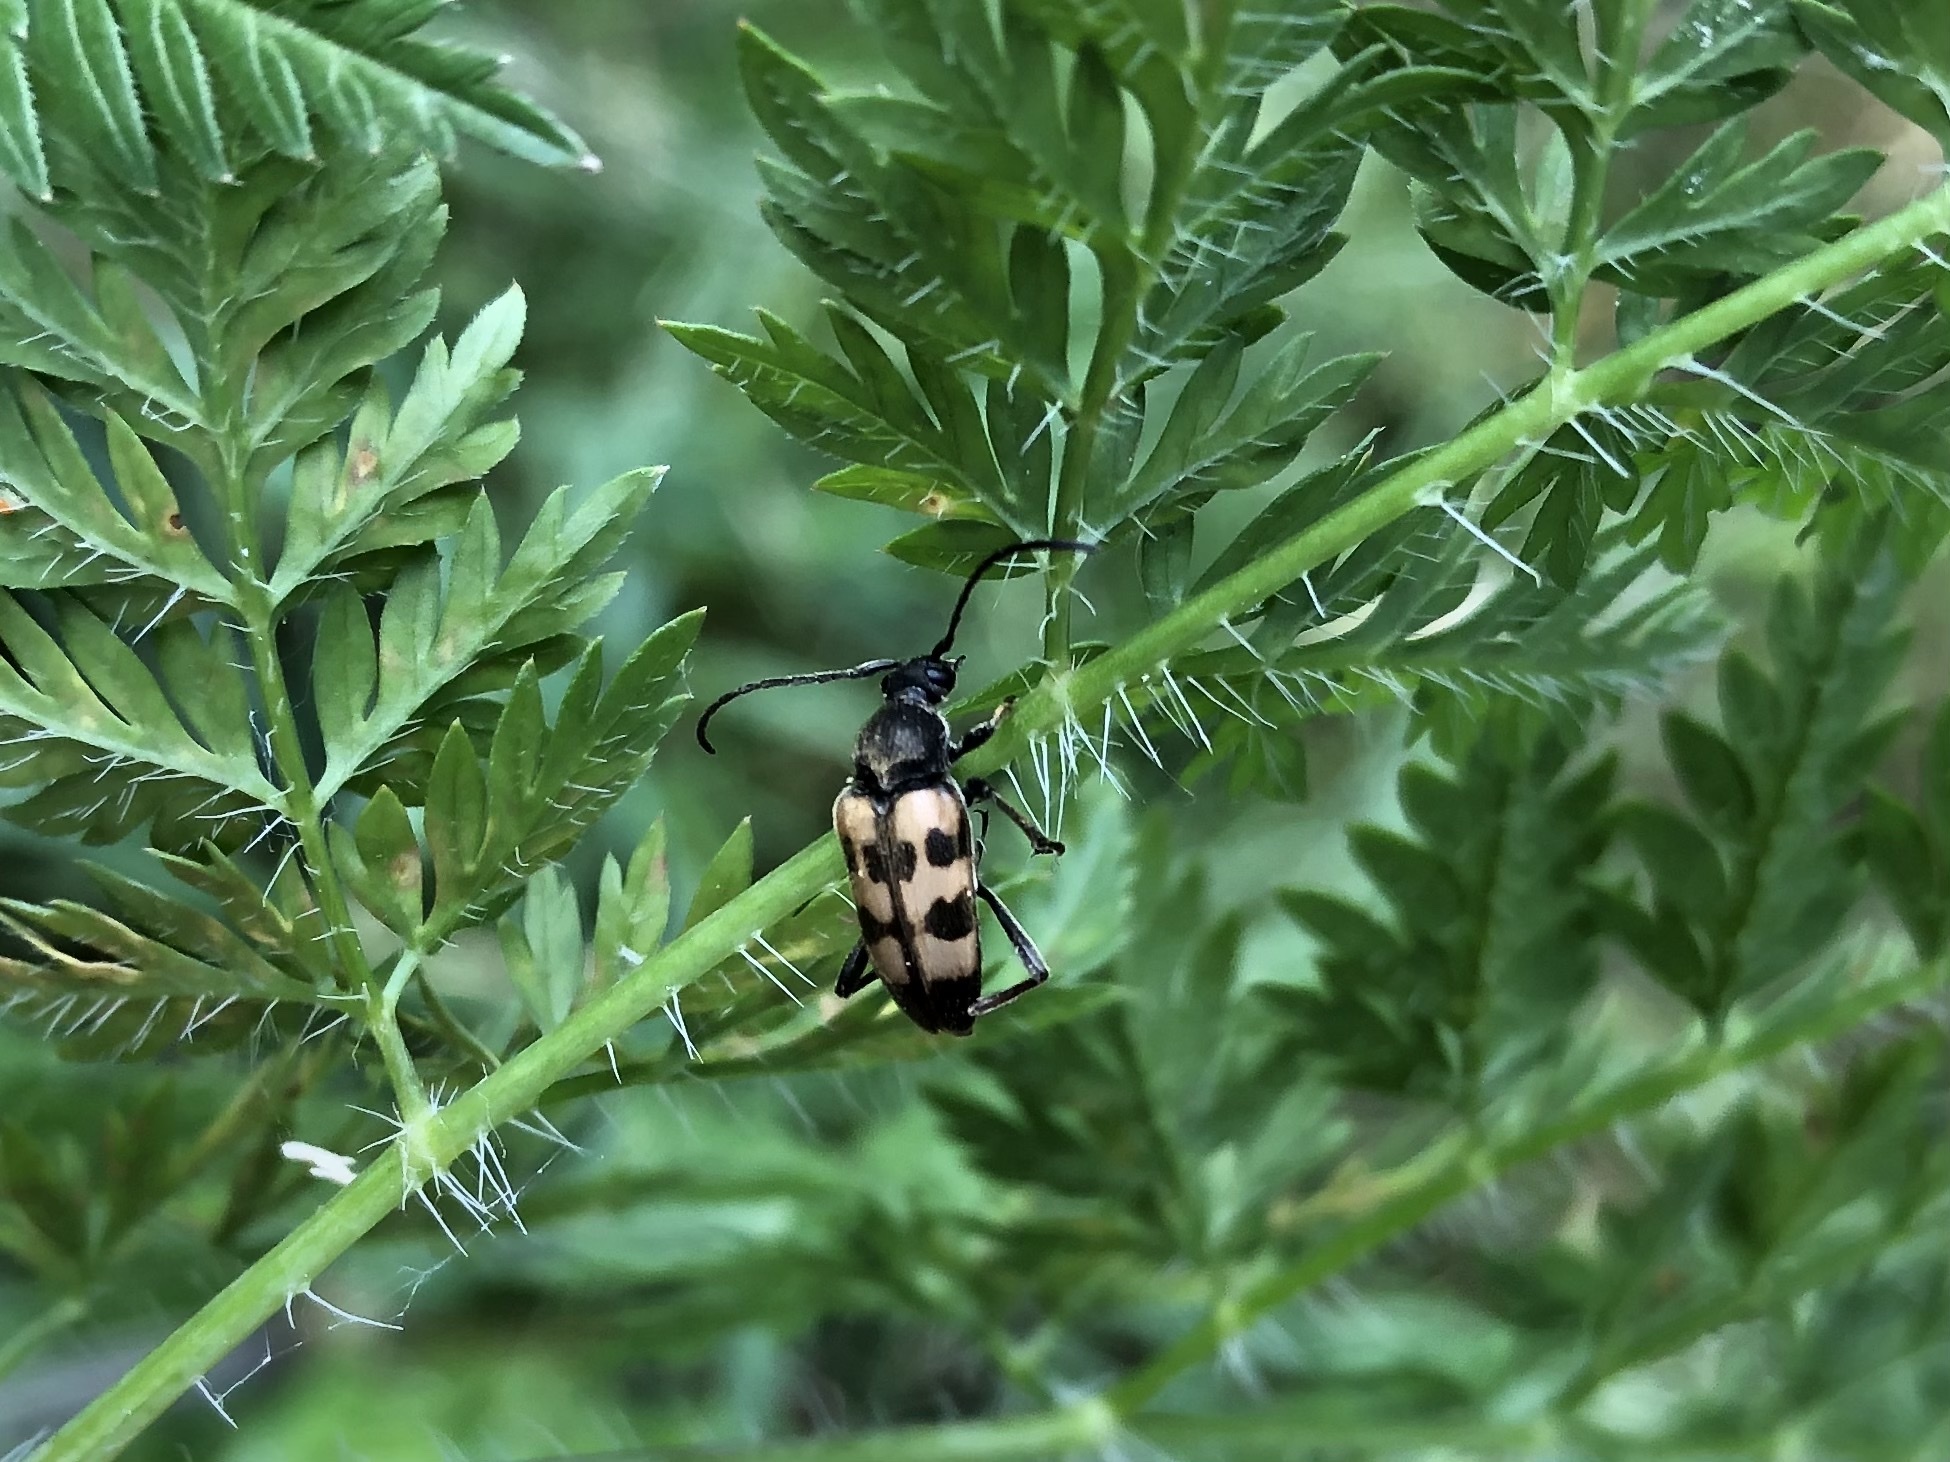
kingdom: Animalia
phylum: Arthropoda
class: Insecta
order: Coleoptera
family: Cerambycidae
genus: Pachytodes
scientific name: Pachytodes
